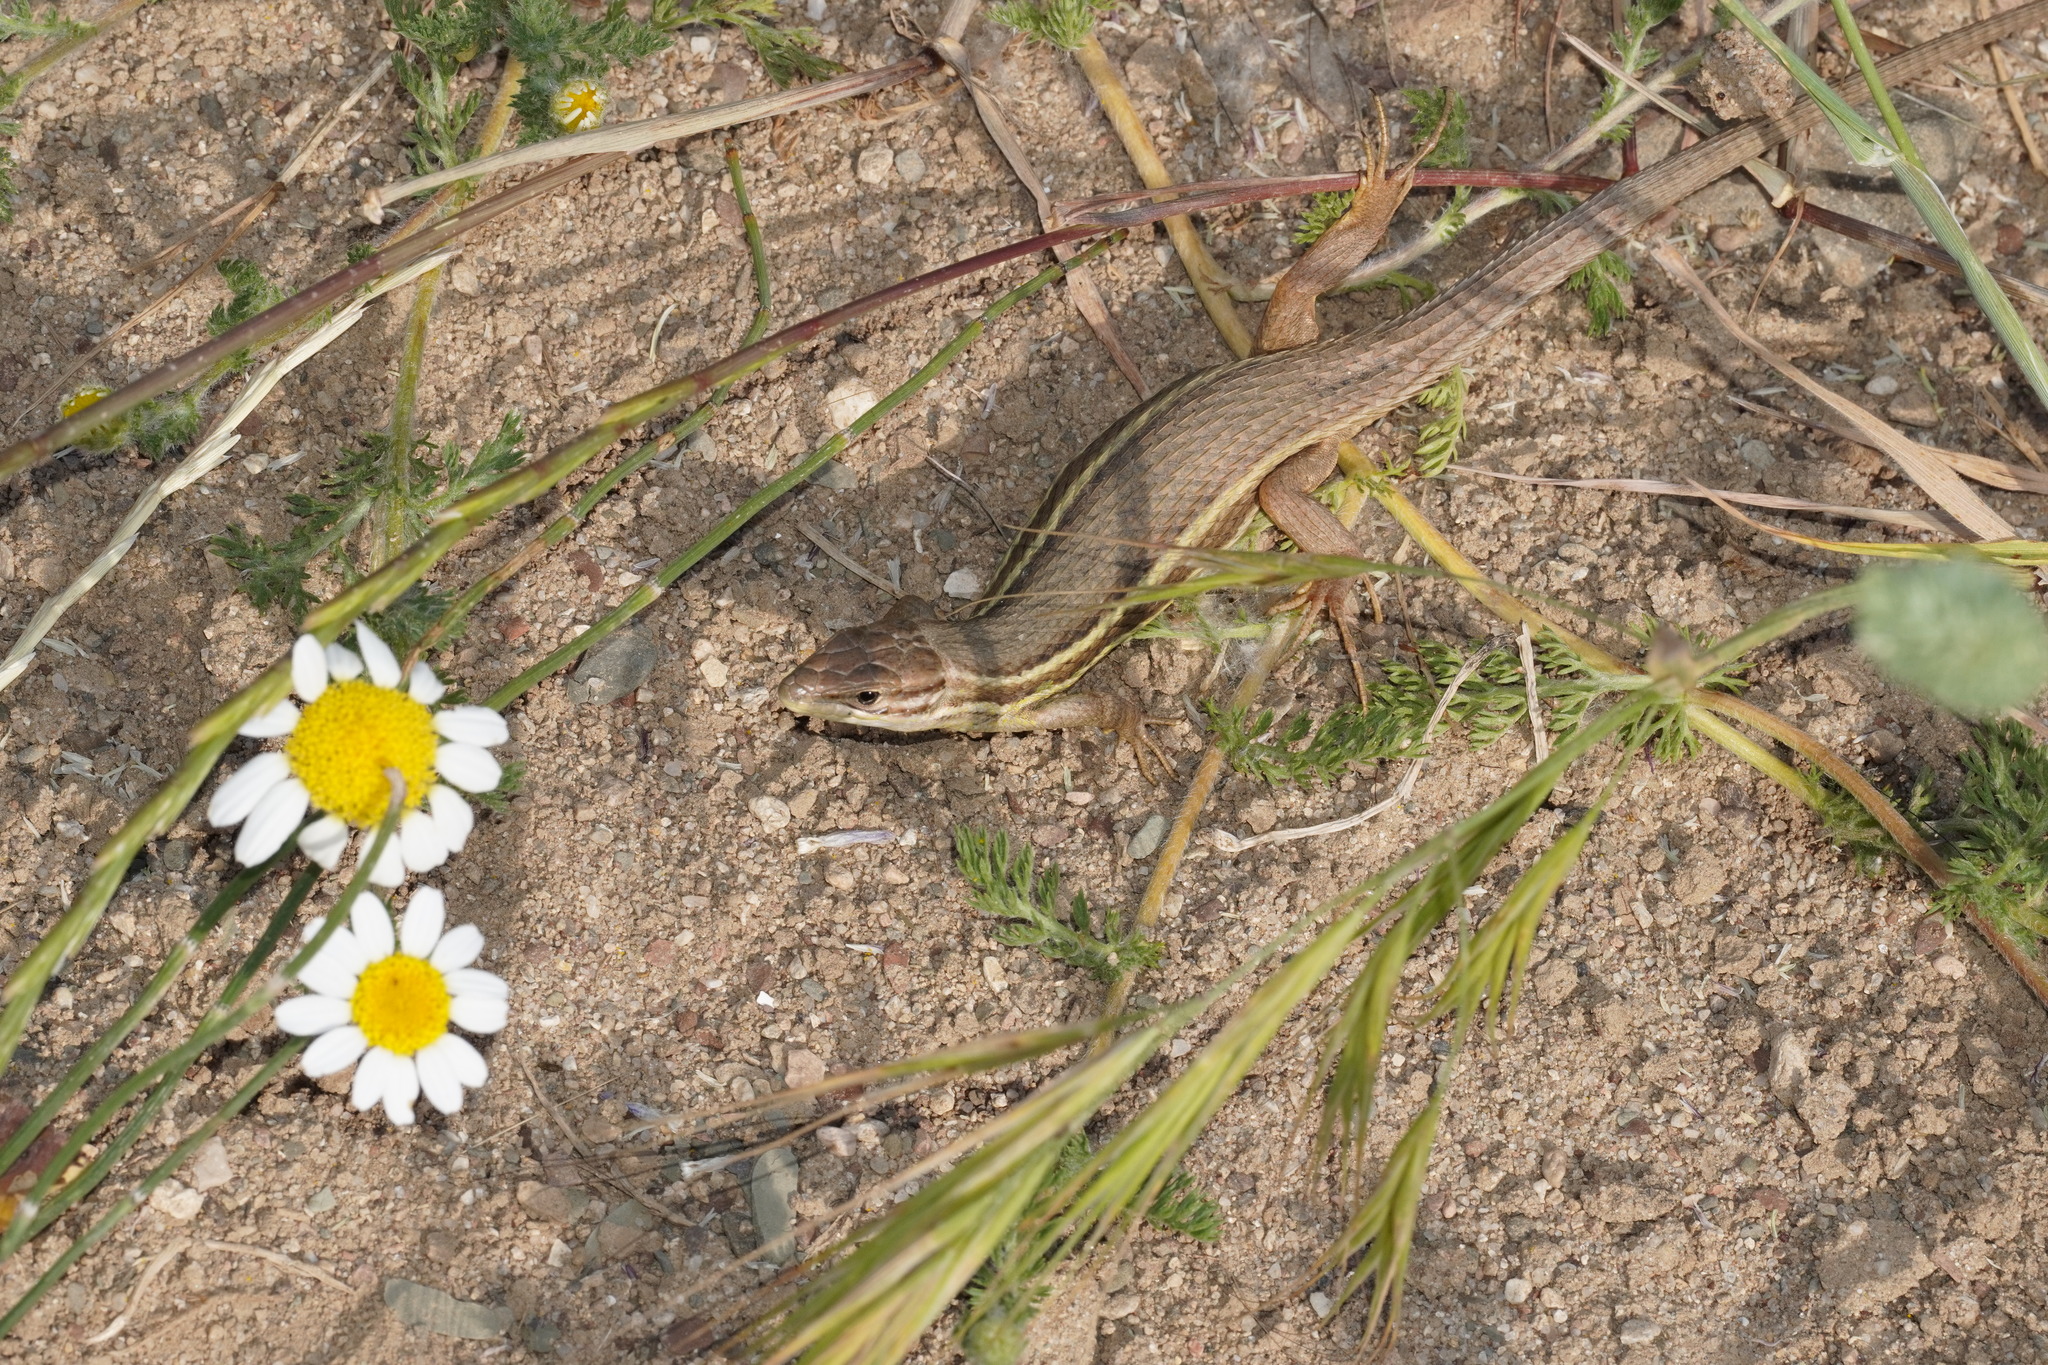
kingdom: Animalia
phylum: Chordata
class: Squamata
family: Lacertidae
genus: Psammodromus
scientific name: Psammodromus algirus
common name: Algerian psammodromus
